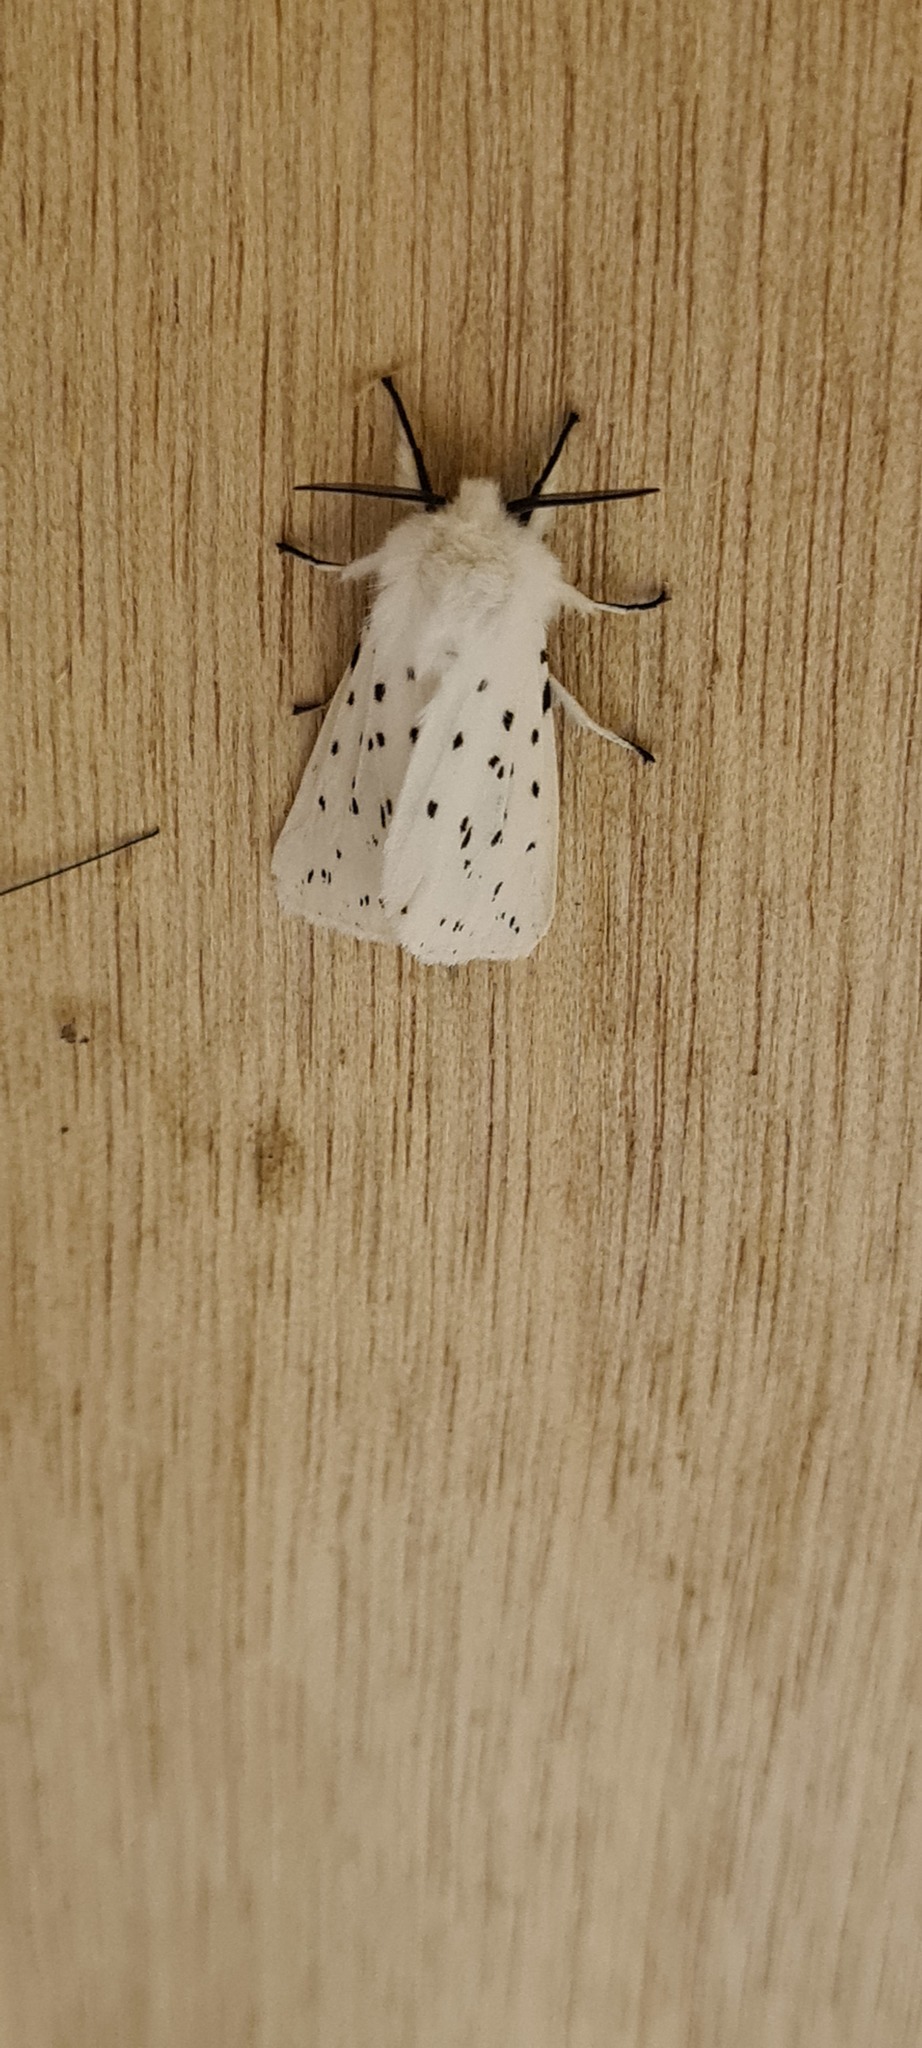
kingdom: Animalia
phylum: Arthropoda
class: Insecta
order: Lepidoptera
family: Erebidae
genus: Spilosoma
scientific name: Spilosoma lubricipeda
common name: White ermine
